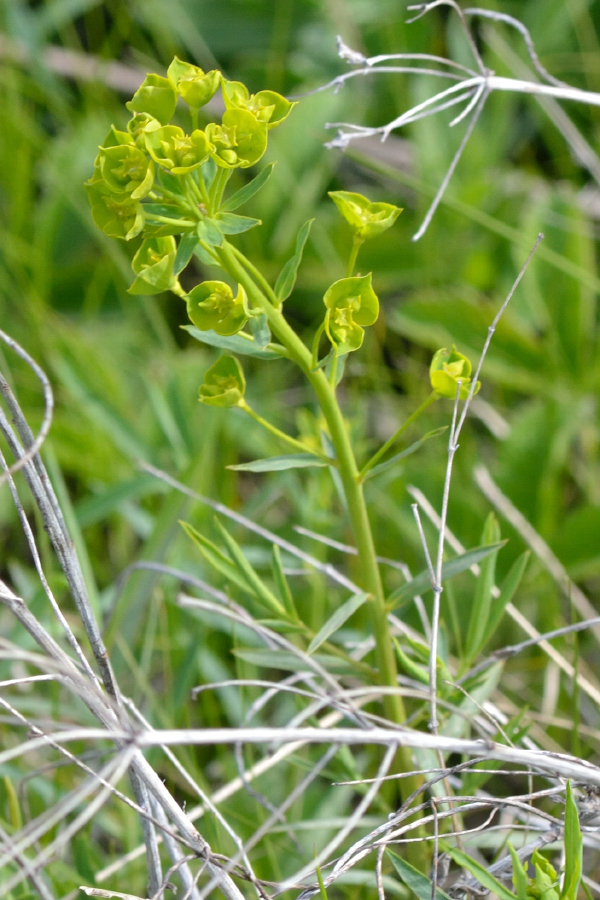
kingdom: Plantae
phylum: Tracheophyta
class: Magnoliopsida
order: Malpighiales
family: Euphorbiaceae
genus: Euphorbia
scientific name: Euphorbia virgata
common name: Leafy spurge
